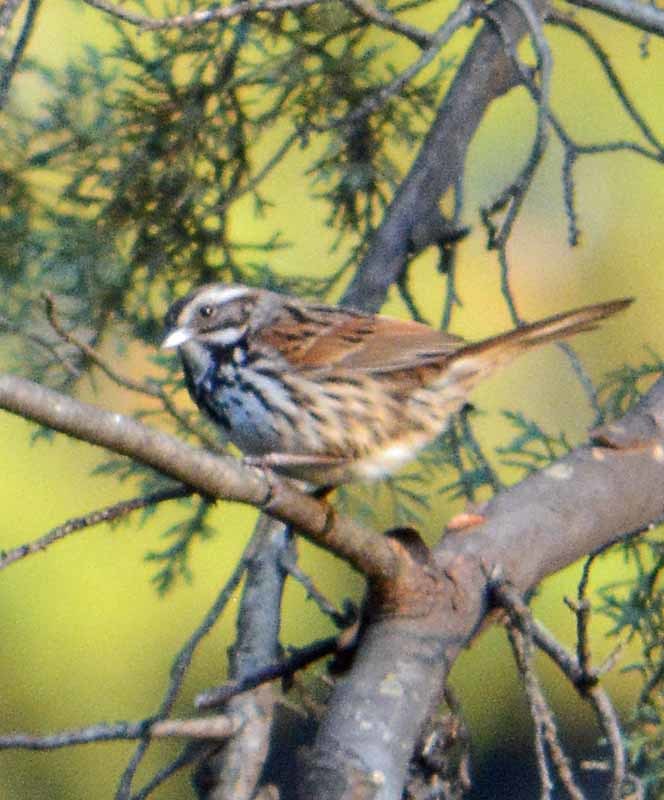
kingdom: Animalia
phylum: Chordata
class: Aves
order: Passeriformes
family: Passerellidae
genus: Melospiza
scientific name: Melospiza melodia
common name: Song sparrow
